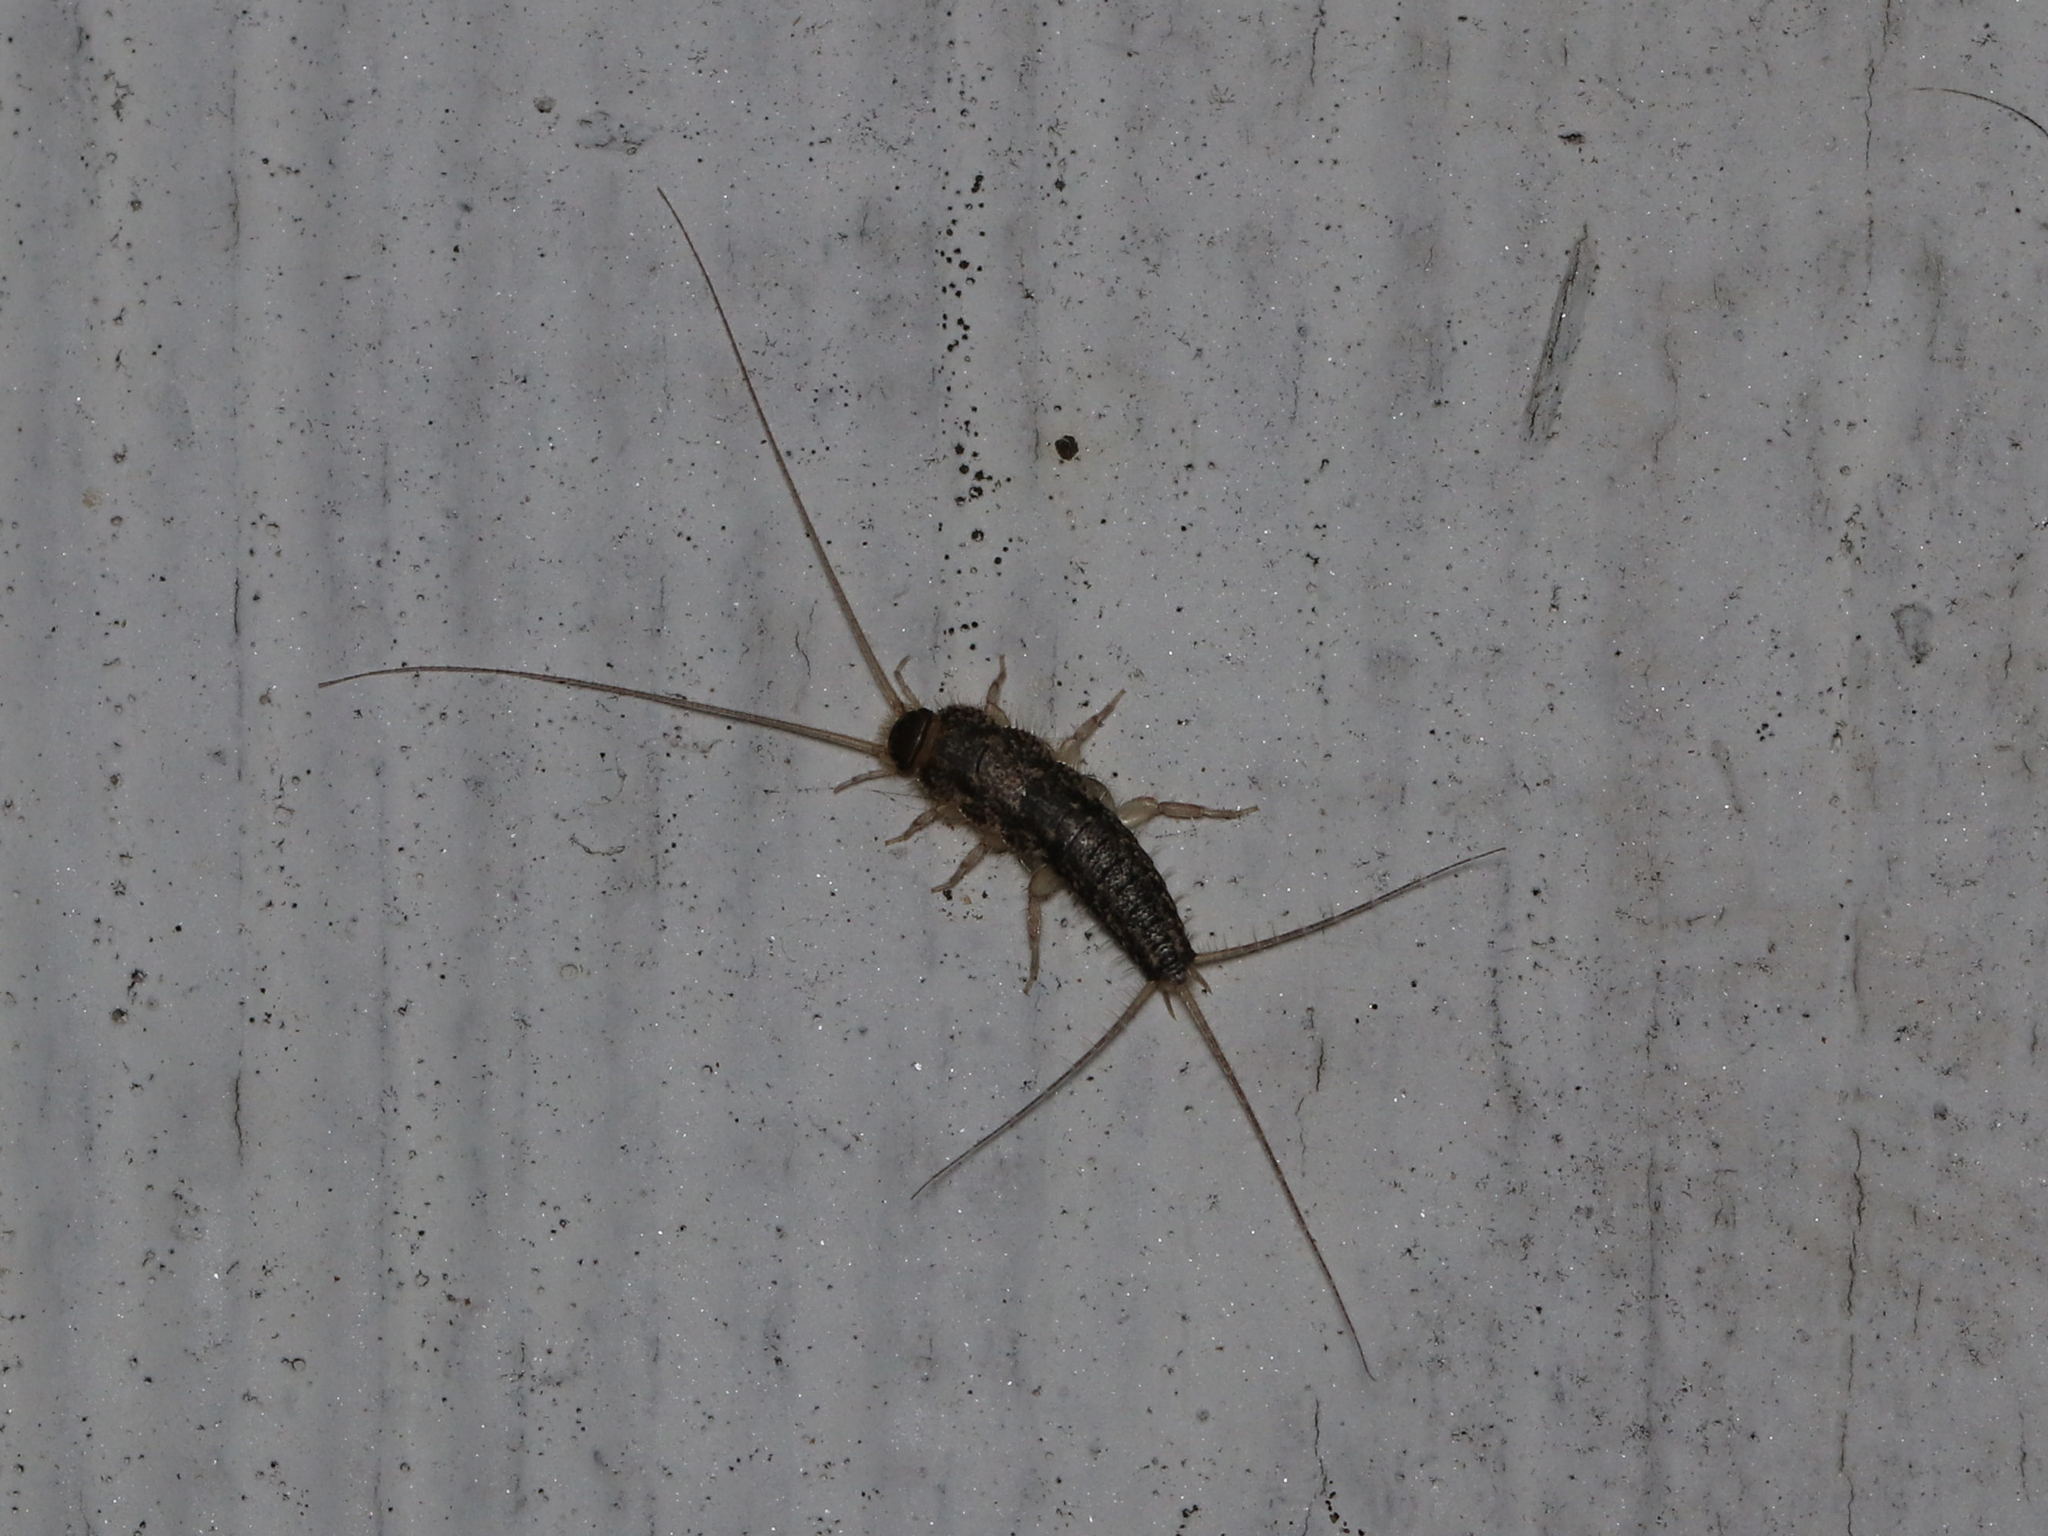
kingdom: Animalia
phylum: Arthropoda
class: Insecta
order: Zygentoma
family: Lepismatidae
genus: Ctenolepisma
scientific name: Ctenolepisma lineata
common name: Four-lined silverfish
